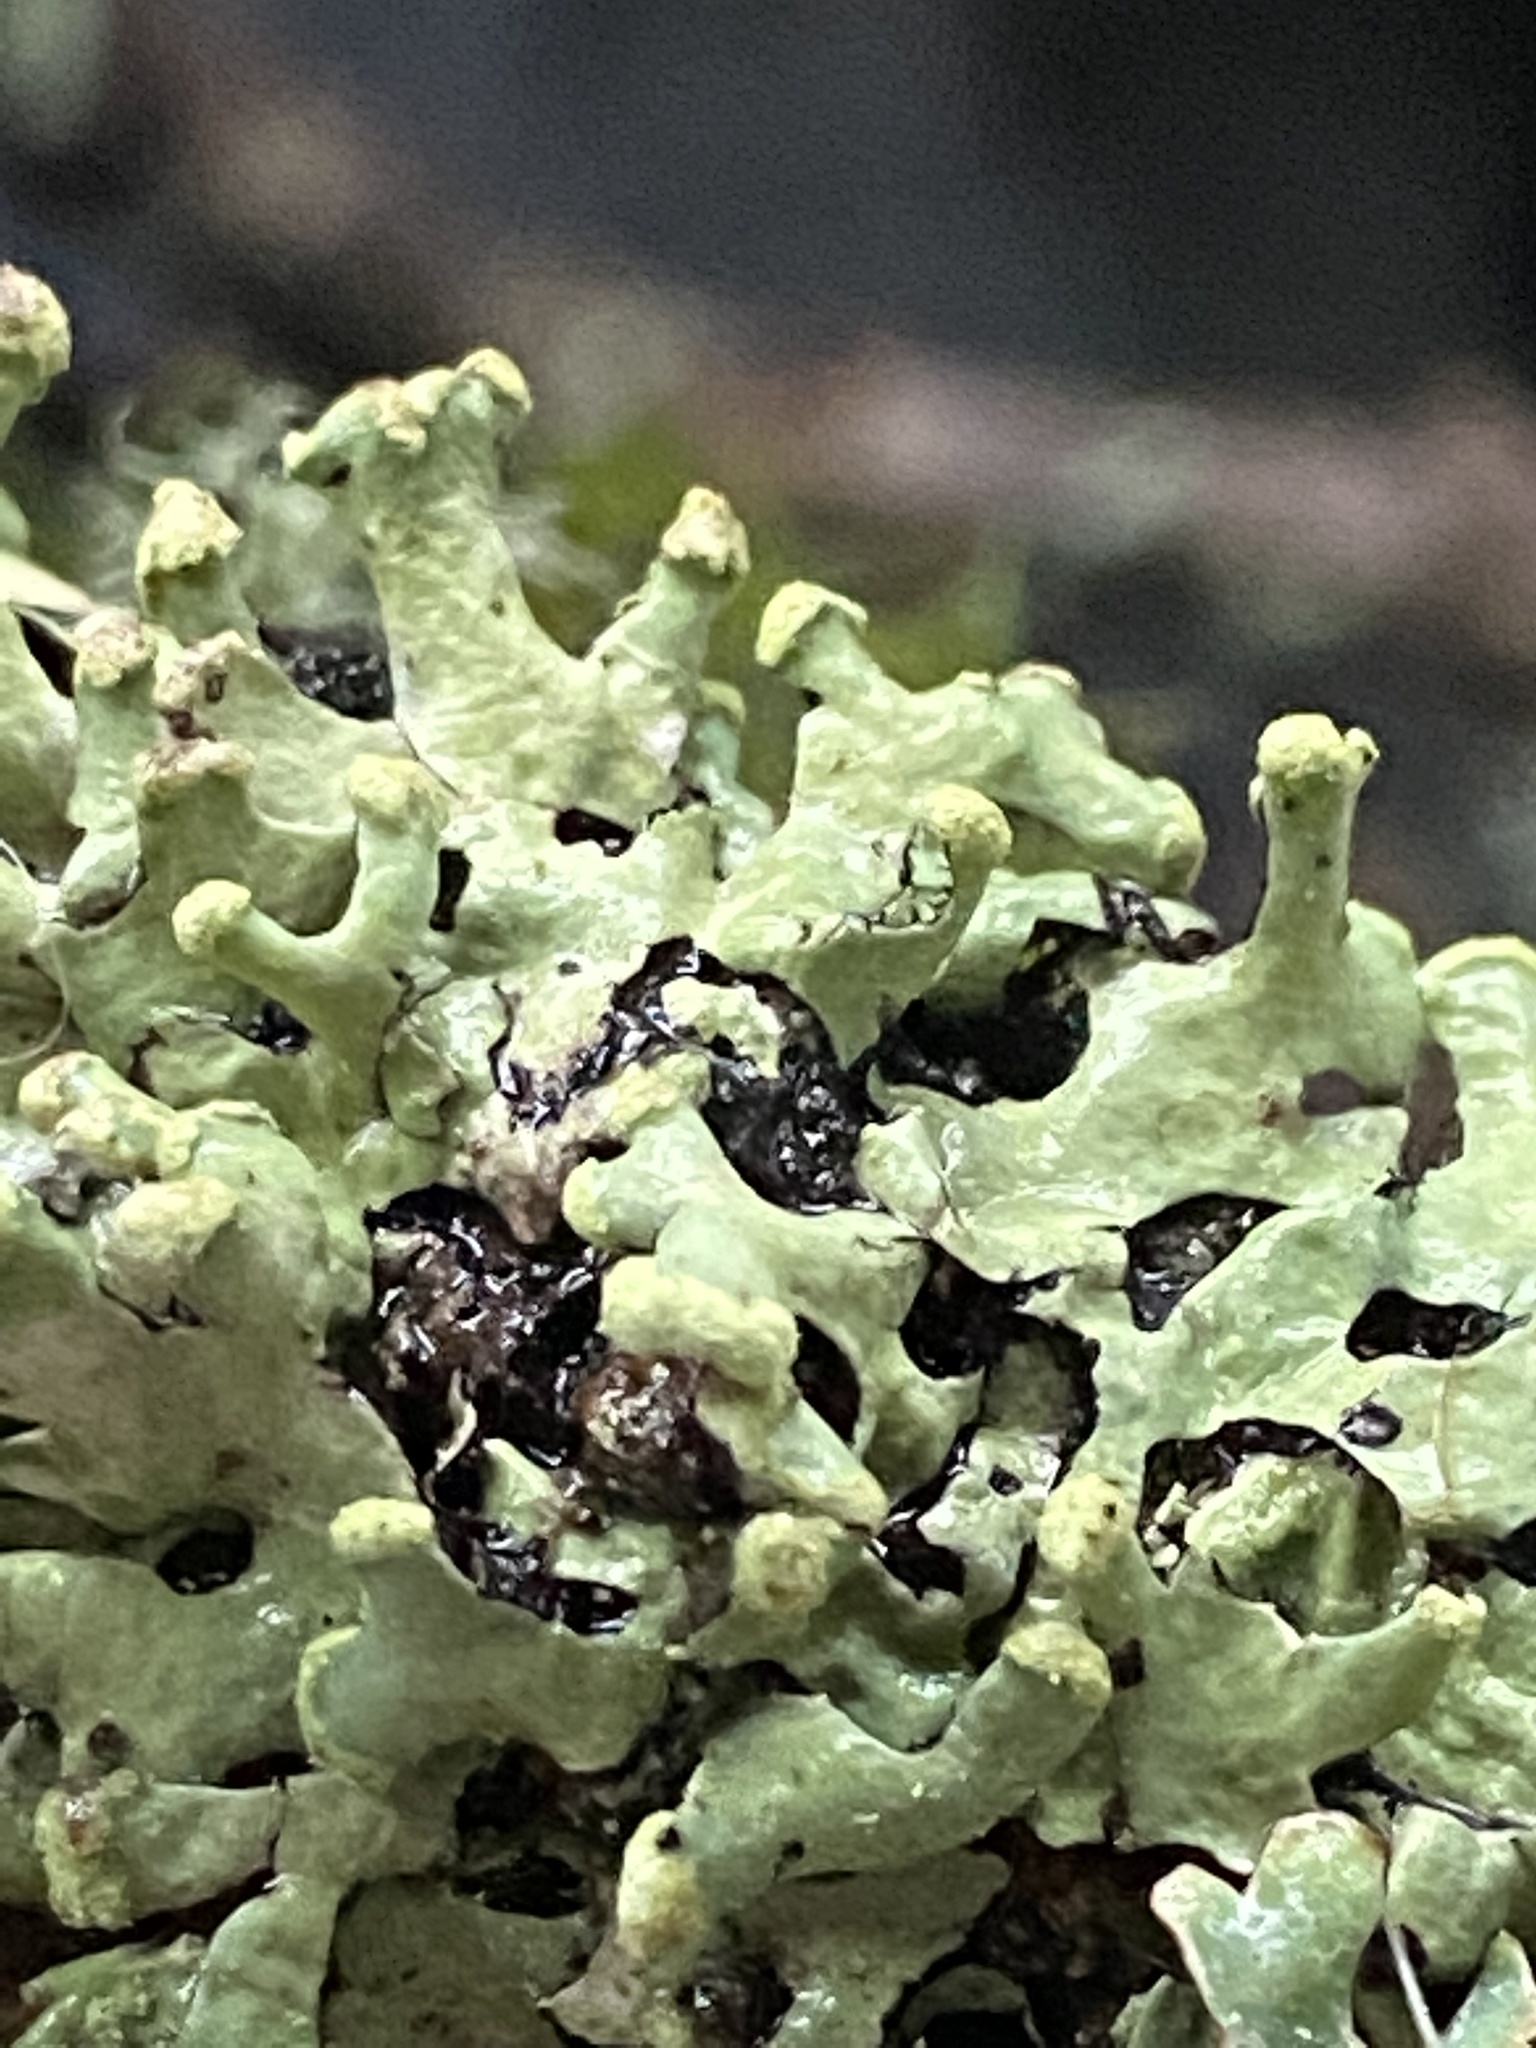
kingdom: Fungi
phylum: Ascomycota
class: Lecanoromycetes
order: Lecanorales
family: Parmeliaceae
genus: Hypotrachyna
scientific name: Hypotrachyna sinuosa
